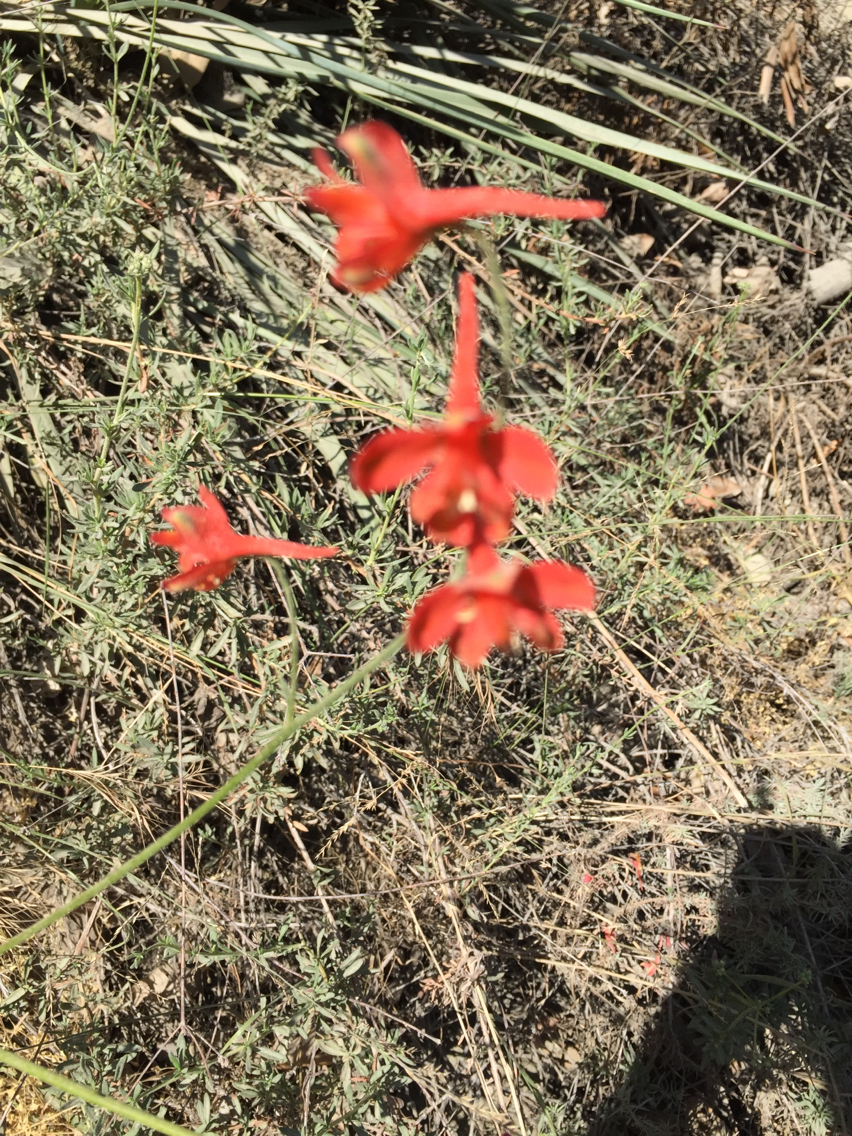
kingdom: Plantae
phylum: Tracheophyta
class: Magnoliopsida
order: Ranunculales
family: Ranunculaceae
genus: Delphinium
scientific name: Delphinium cardinale
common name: Scarlet larkspur
